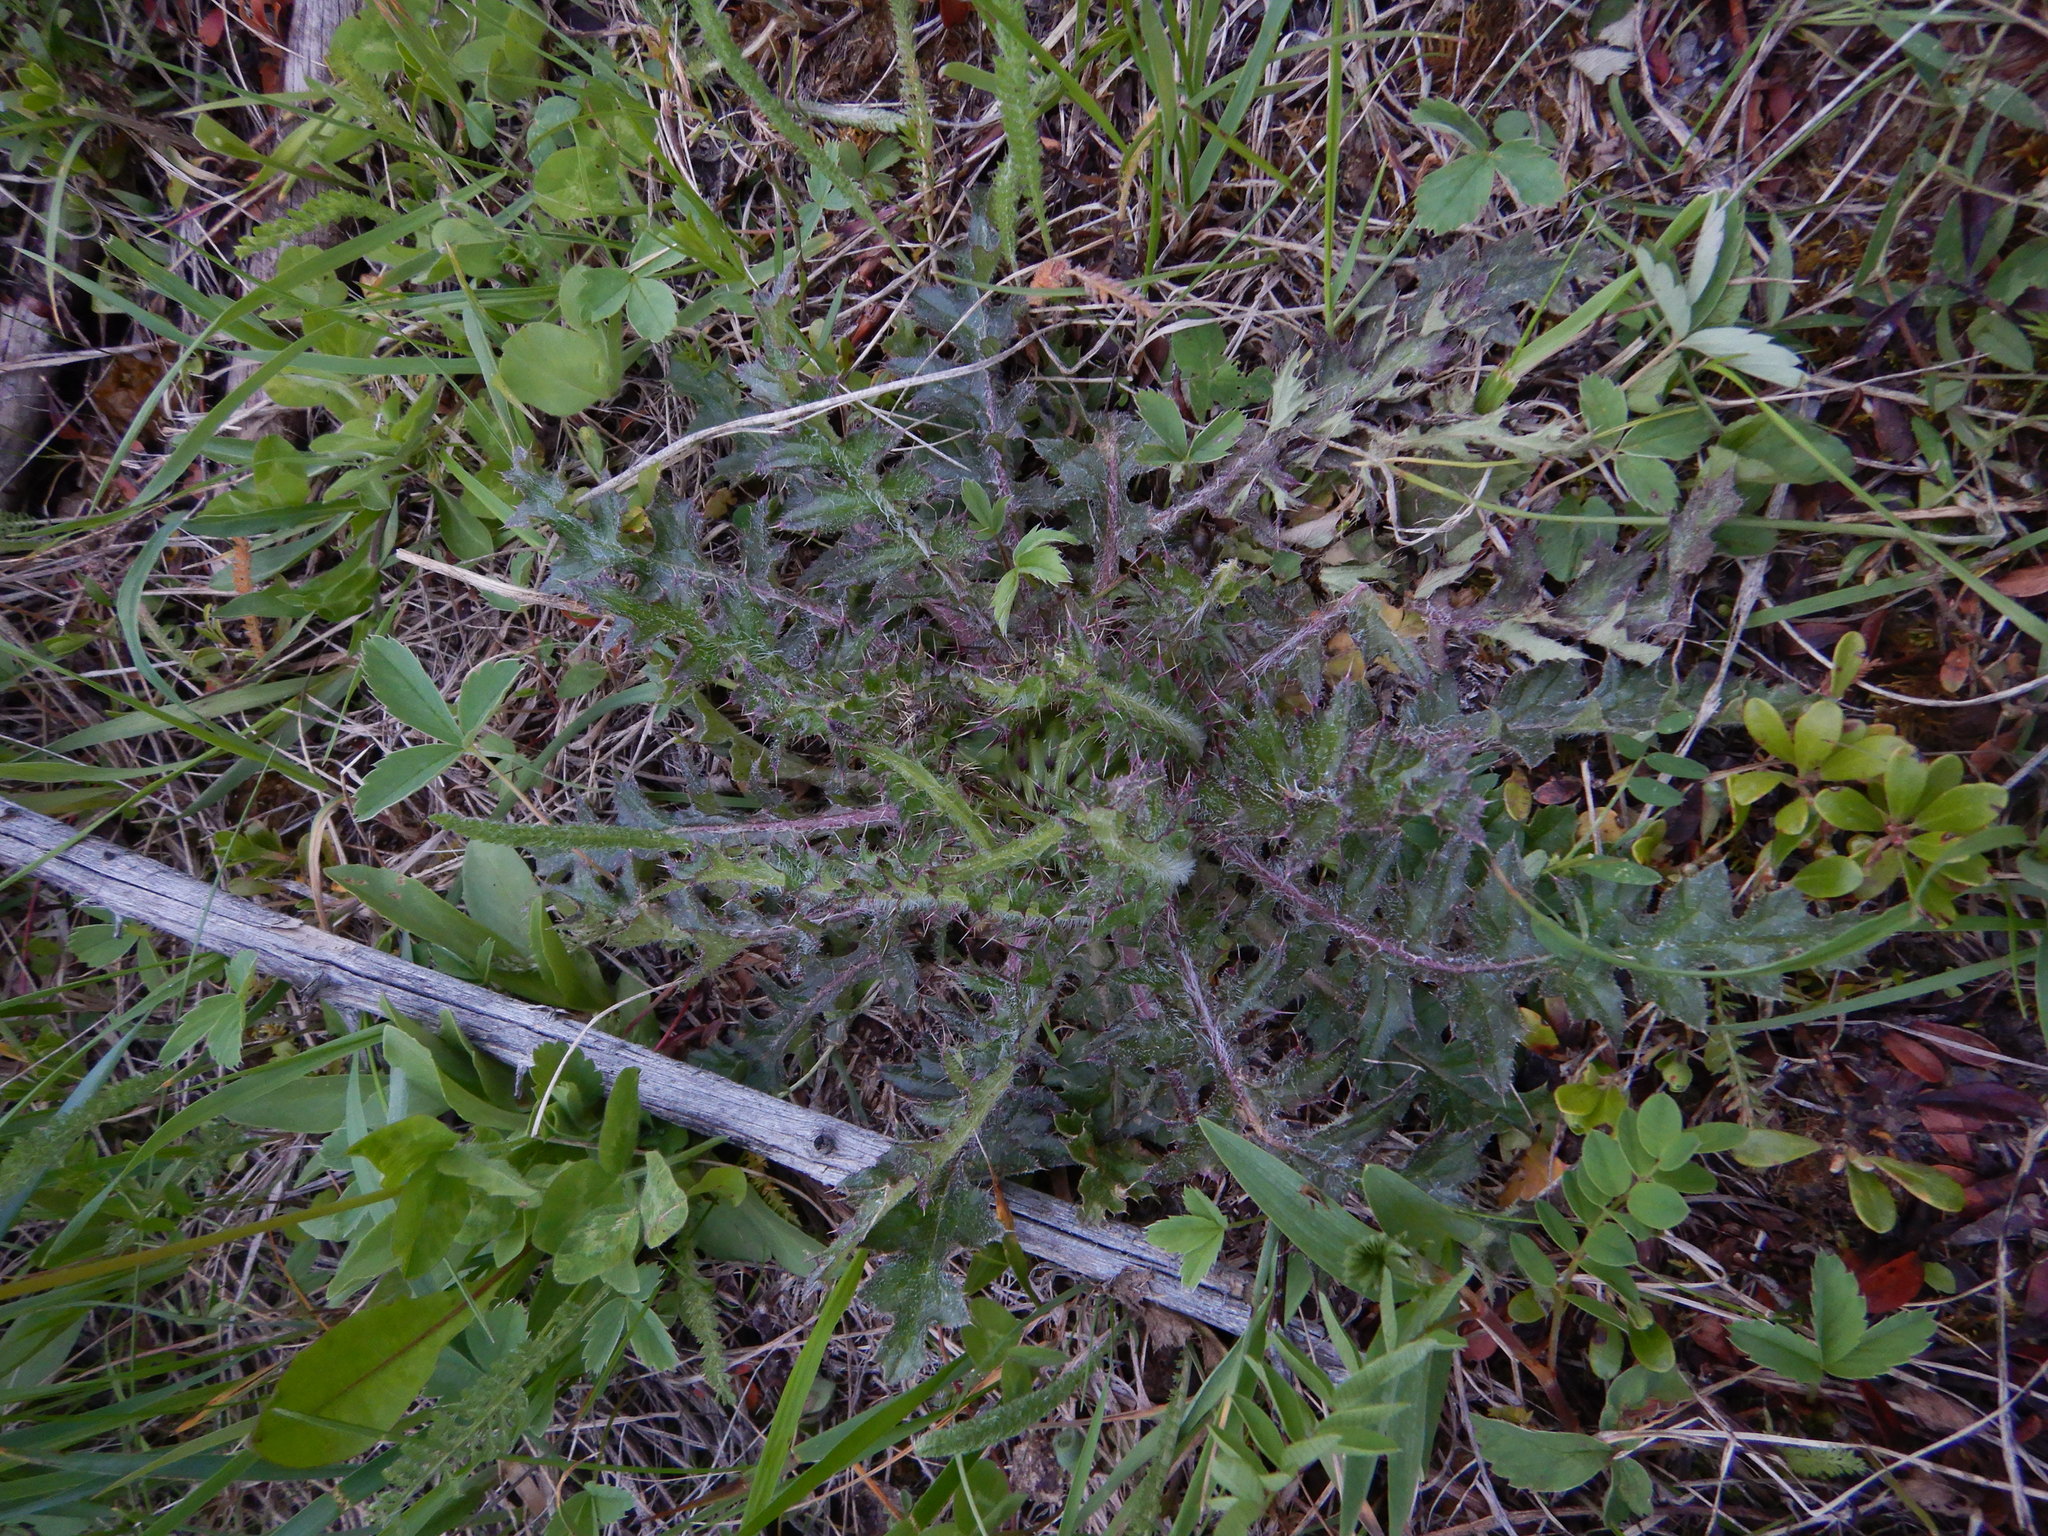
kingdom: Plantae
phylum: Tracheophyta
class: Magnoliopsida
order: Asterales
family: Asteraceae
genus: Cirsium
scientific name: Cirsium drummondii
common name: Drummond's thistle
